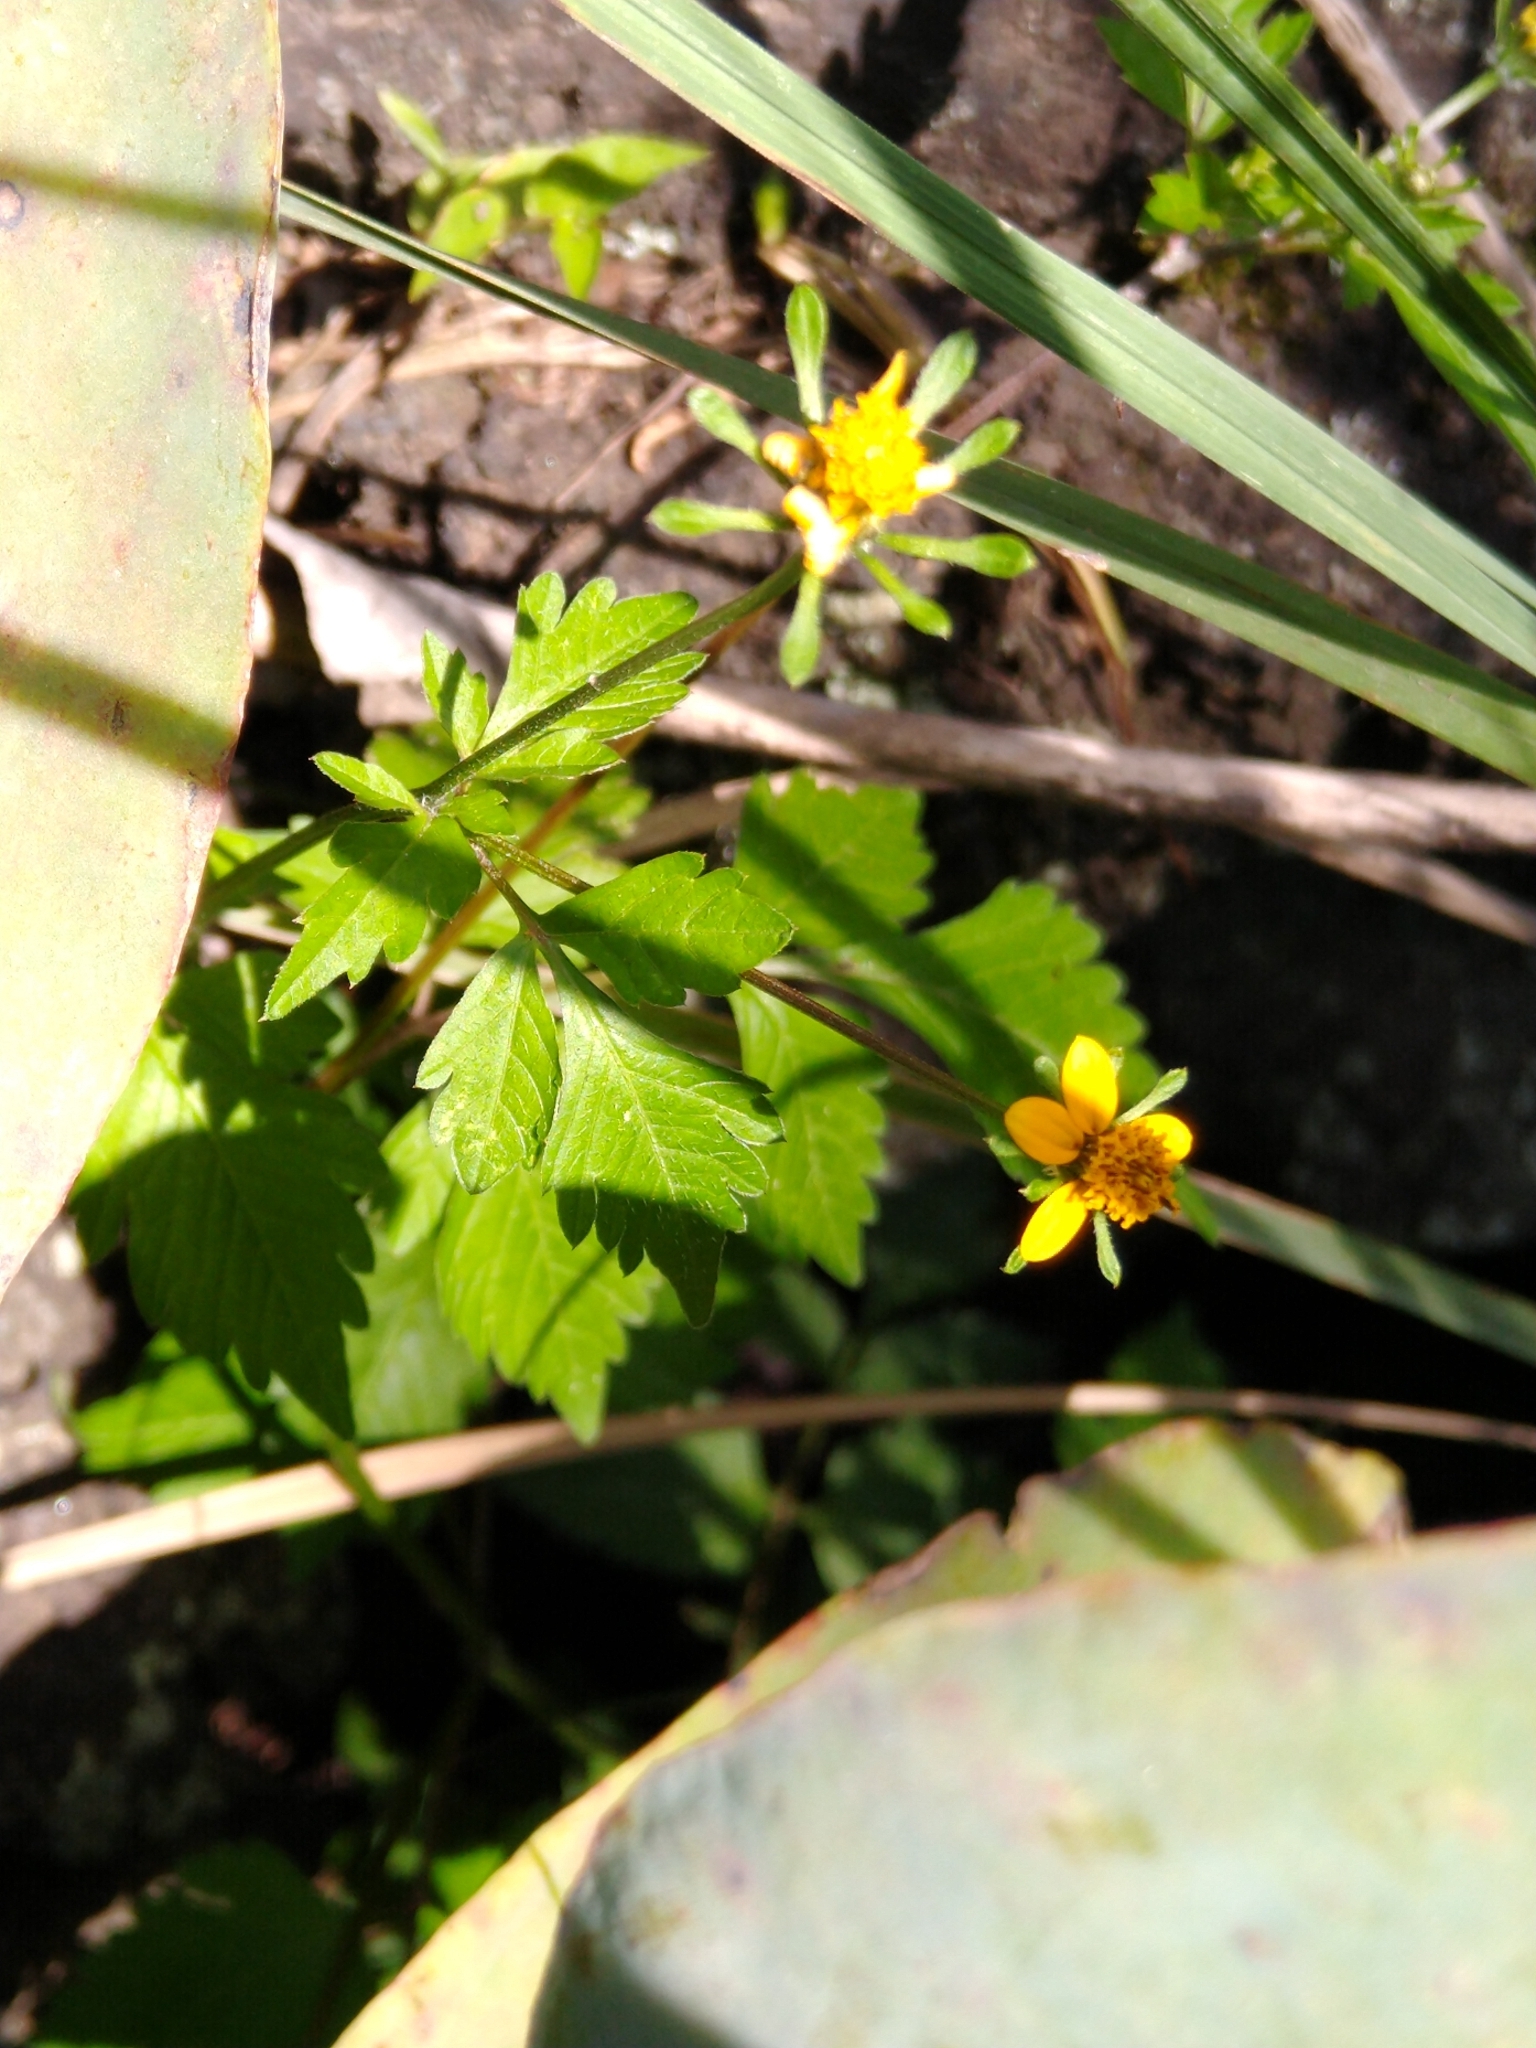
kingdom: Plantae
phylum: Tracheophyta
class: Magnoliopsida
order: Asterales
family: Asteraceae
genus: Bidens
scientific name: Bidens bigelovii
